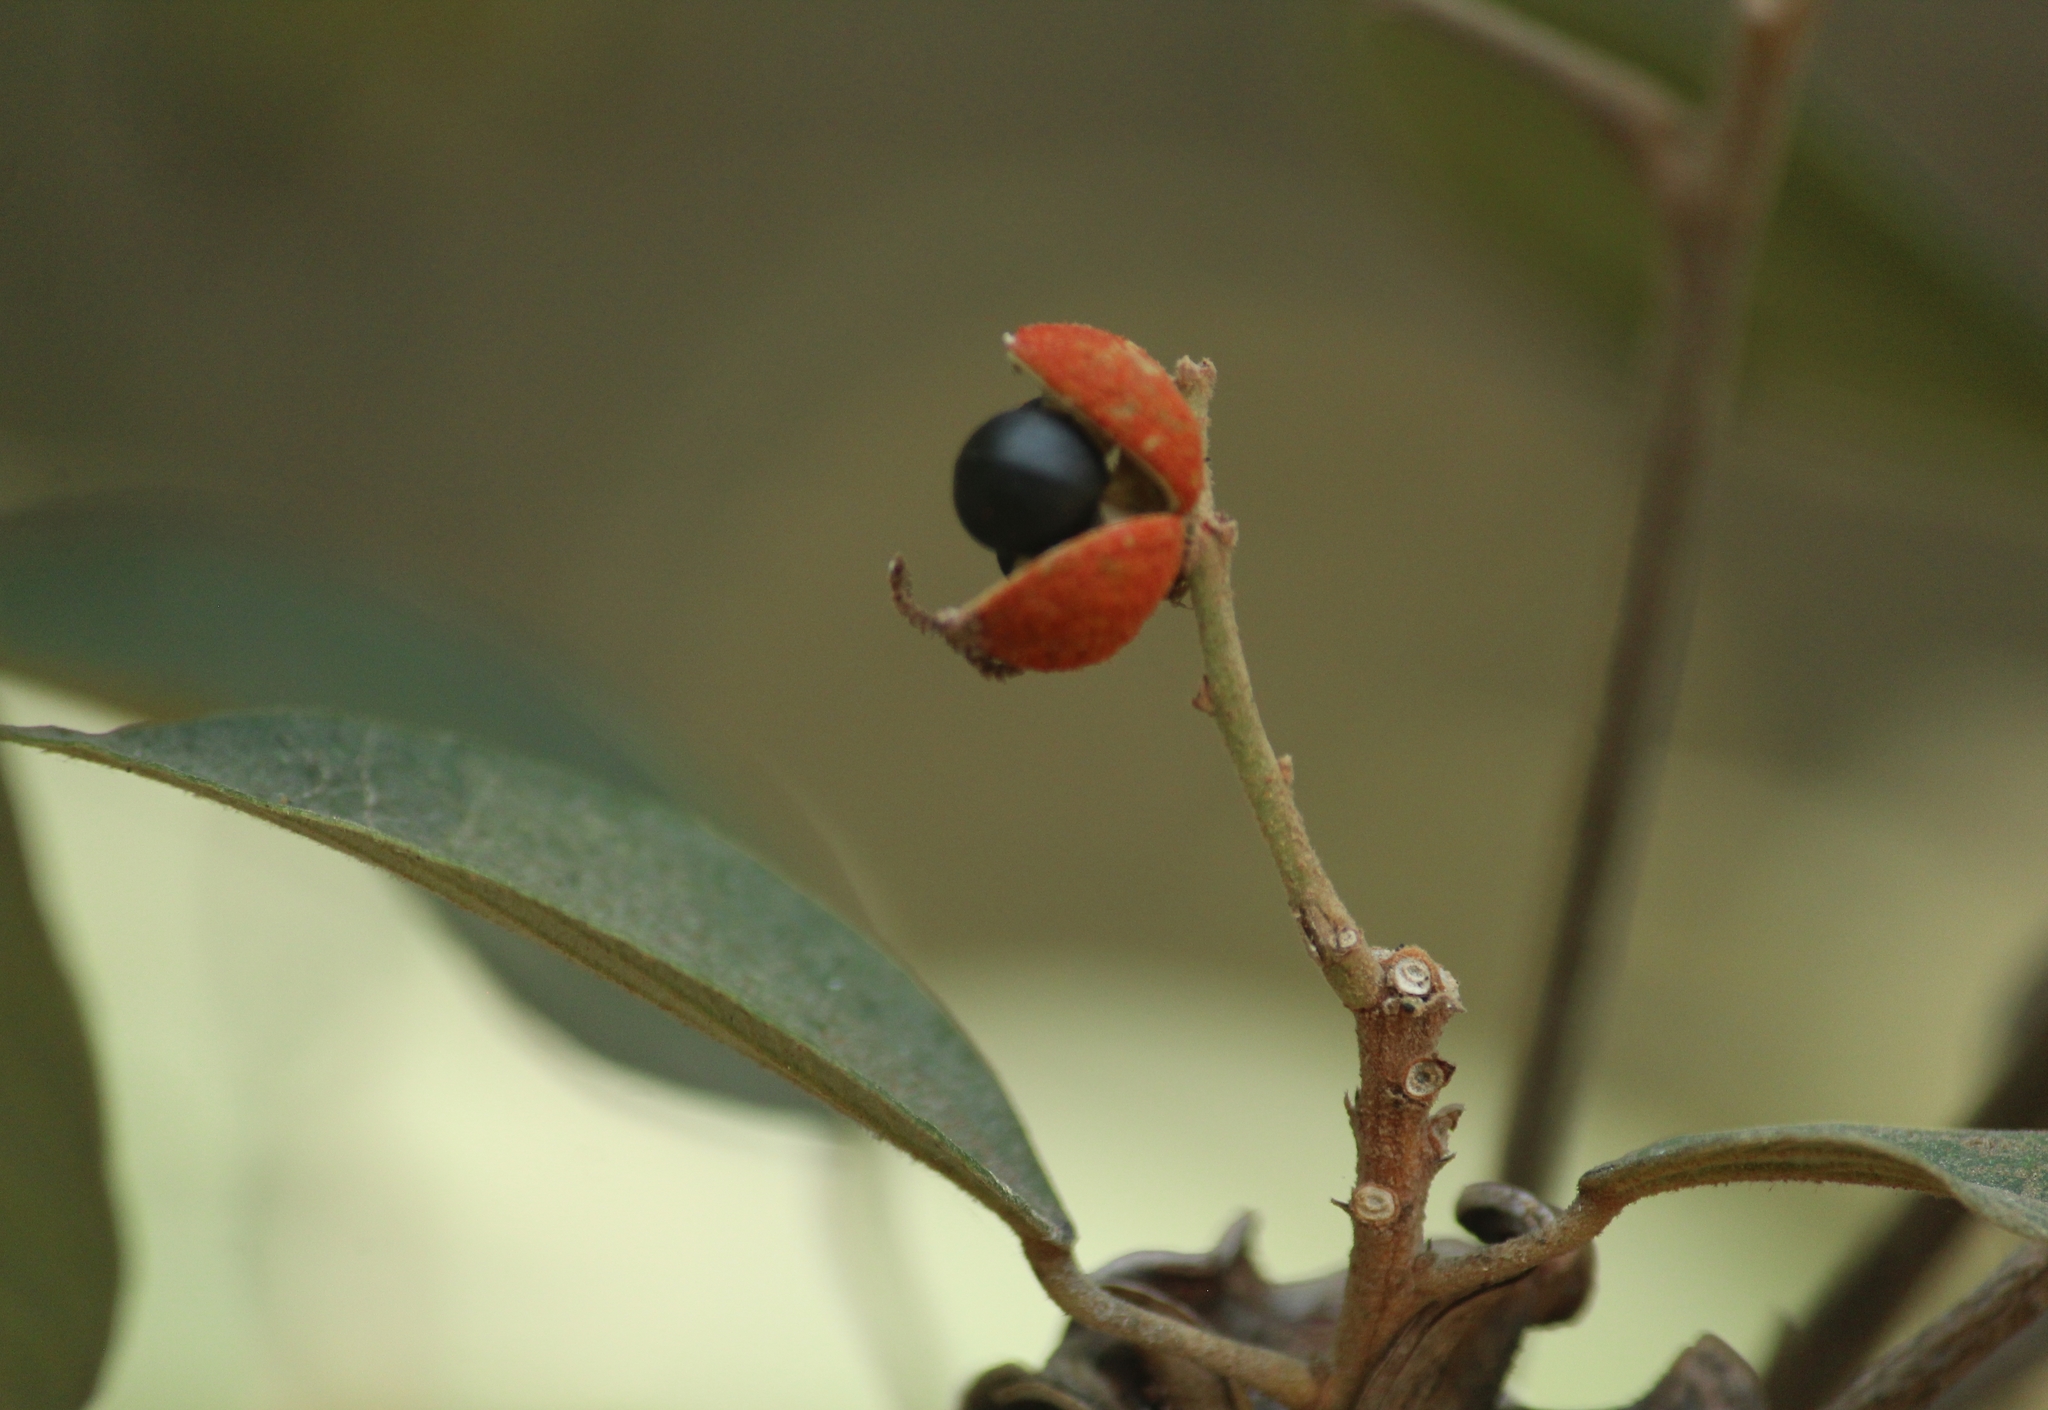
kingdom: Plantae
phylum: Tracheophyta
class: Magnoliopsida
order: Malpighiales
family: Euphorbiaceae
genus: Mallotus
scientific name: Mallotus philippensis
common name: Kamala tree
